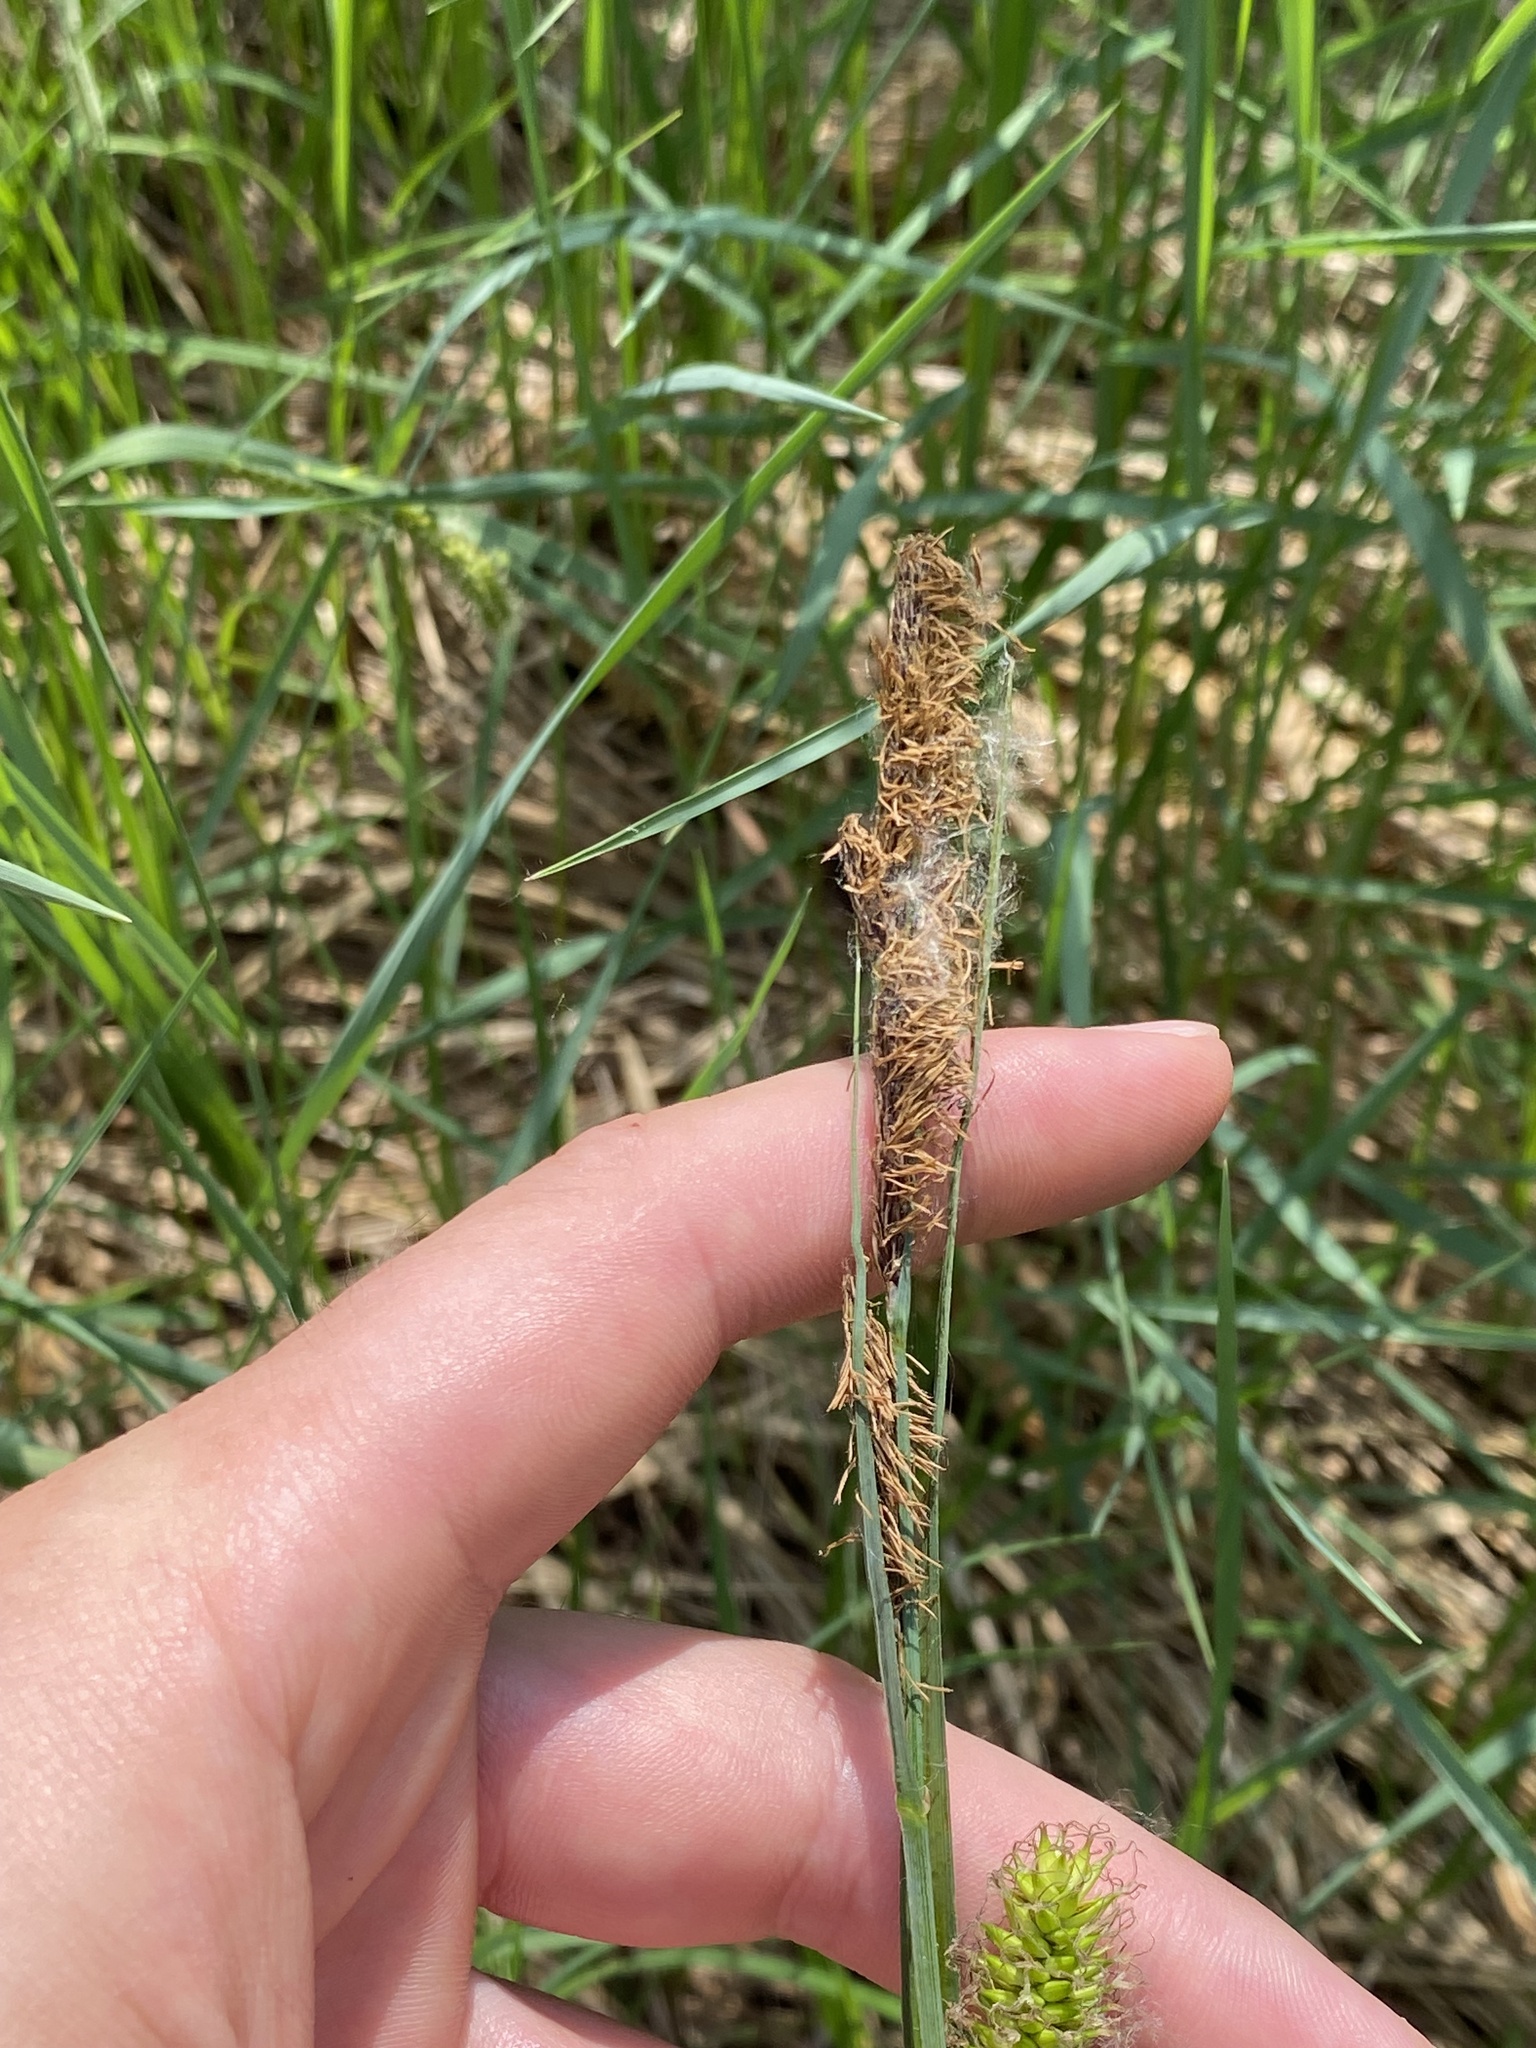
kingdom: Plantae
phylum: Tracheophyta
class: Liliopsida
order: Poales
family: Cyperaceae
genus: Carex
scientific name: Carex lacustris
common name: Common lake sedge
